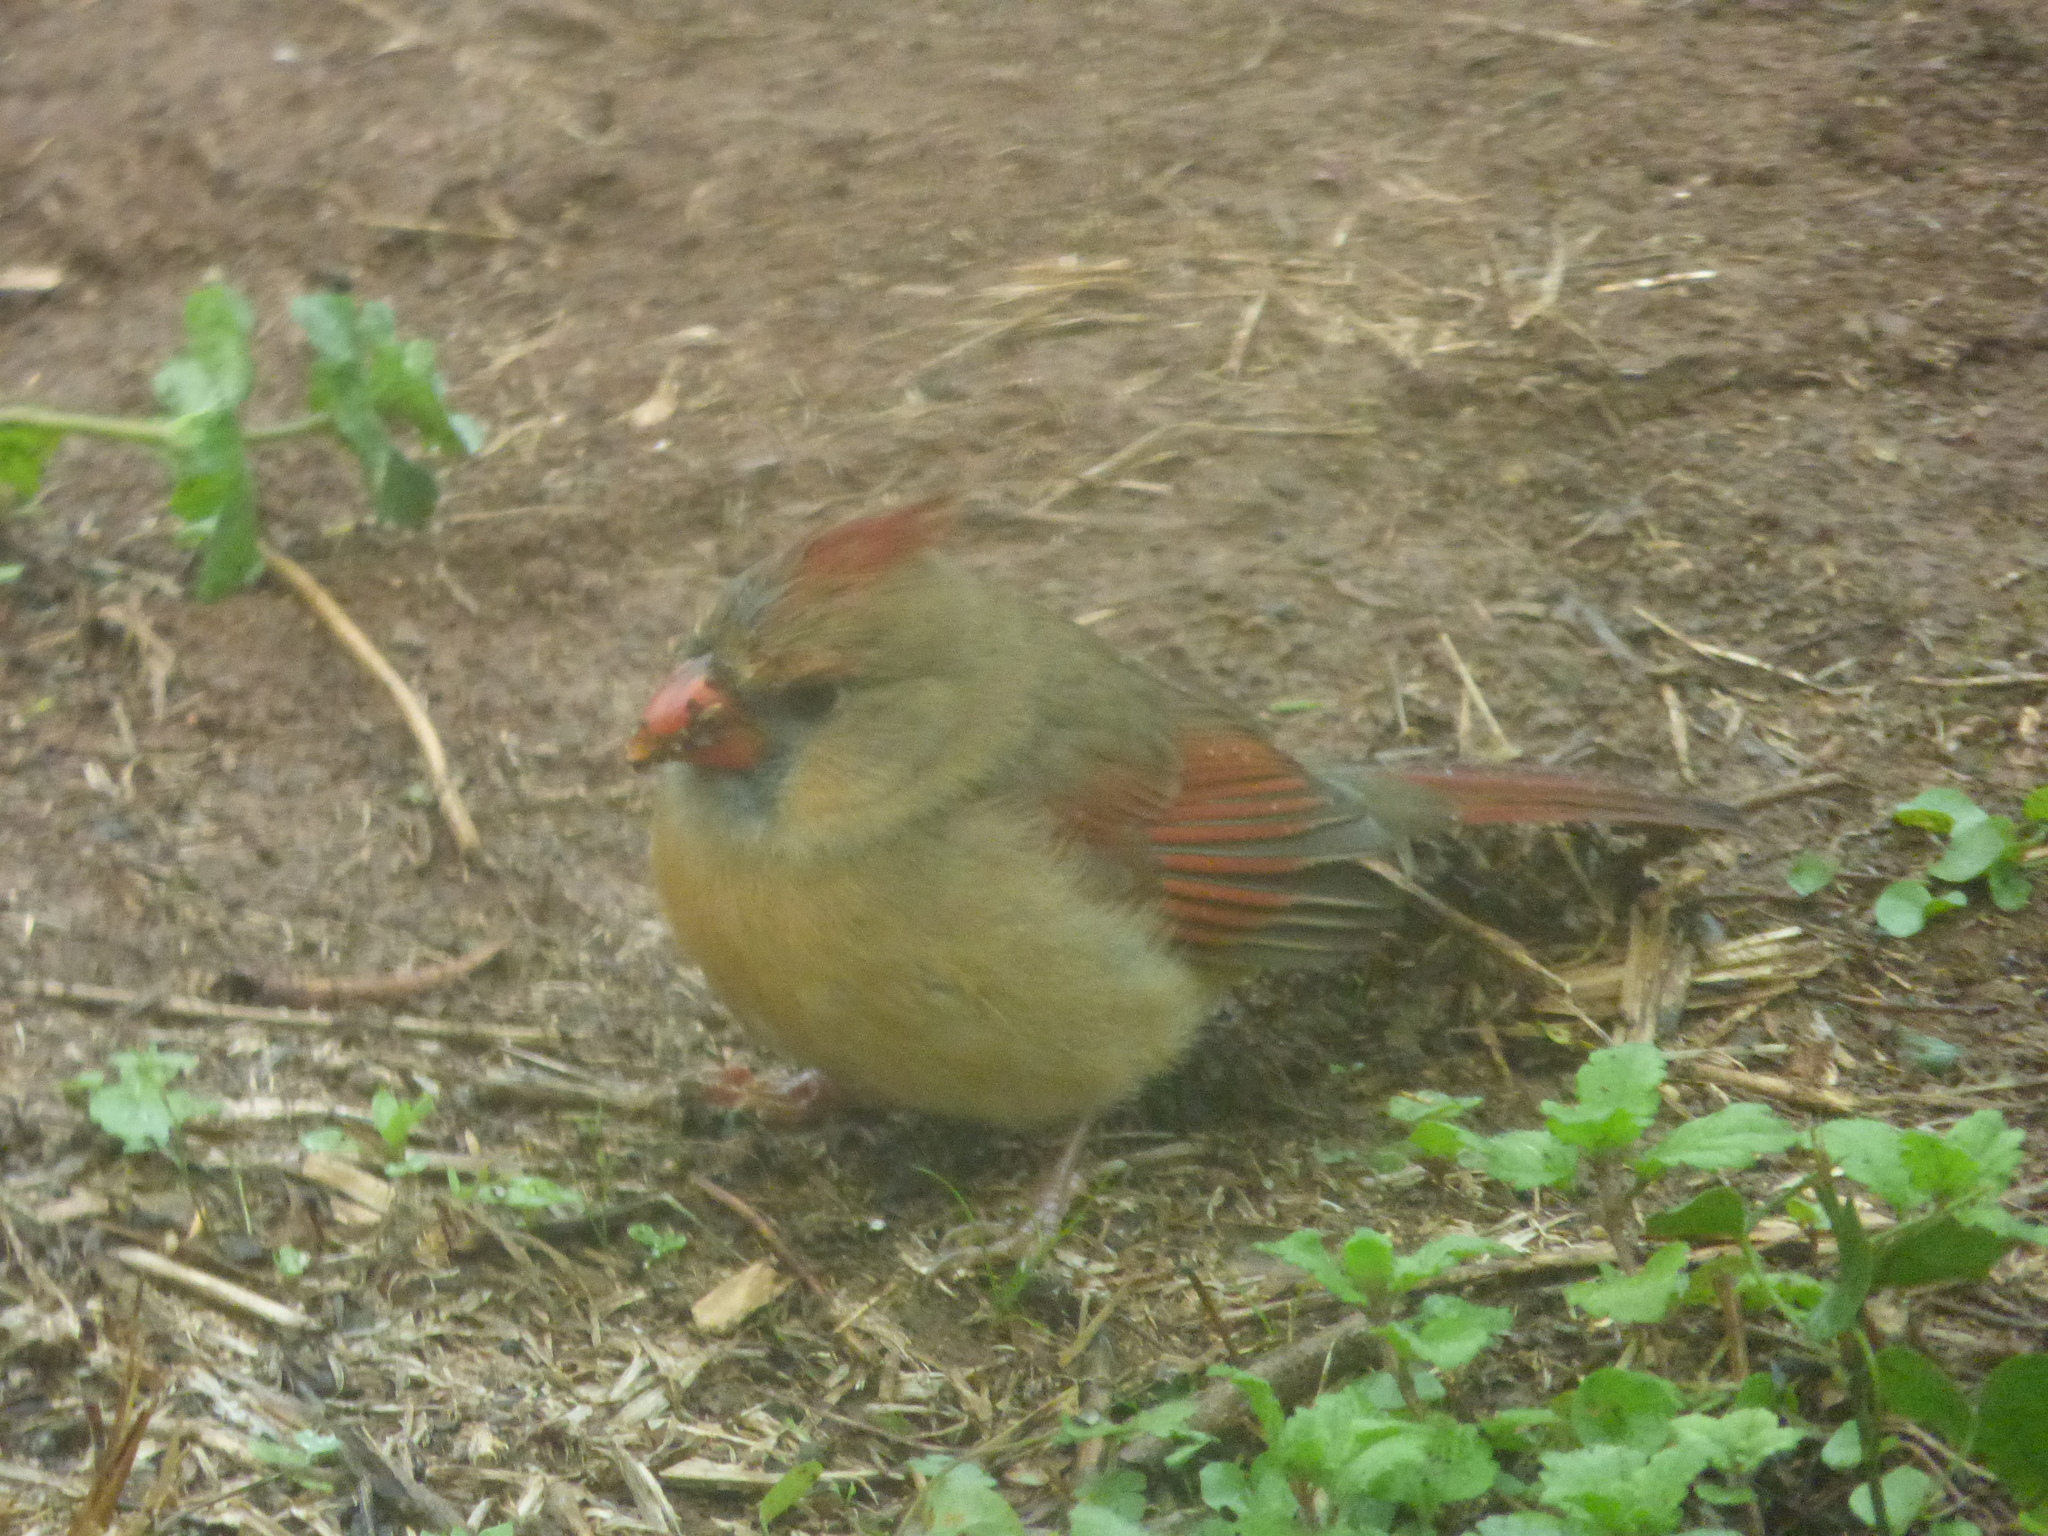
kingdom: Animalia
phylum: Chordata
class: Aves
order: Passeriformes
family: Cardinalidae
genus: Cardinalis
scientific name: Cardinalis cardinalis
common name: Northern cardinal
